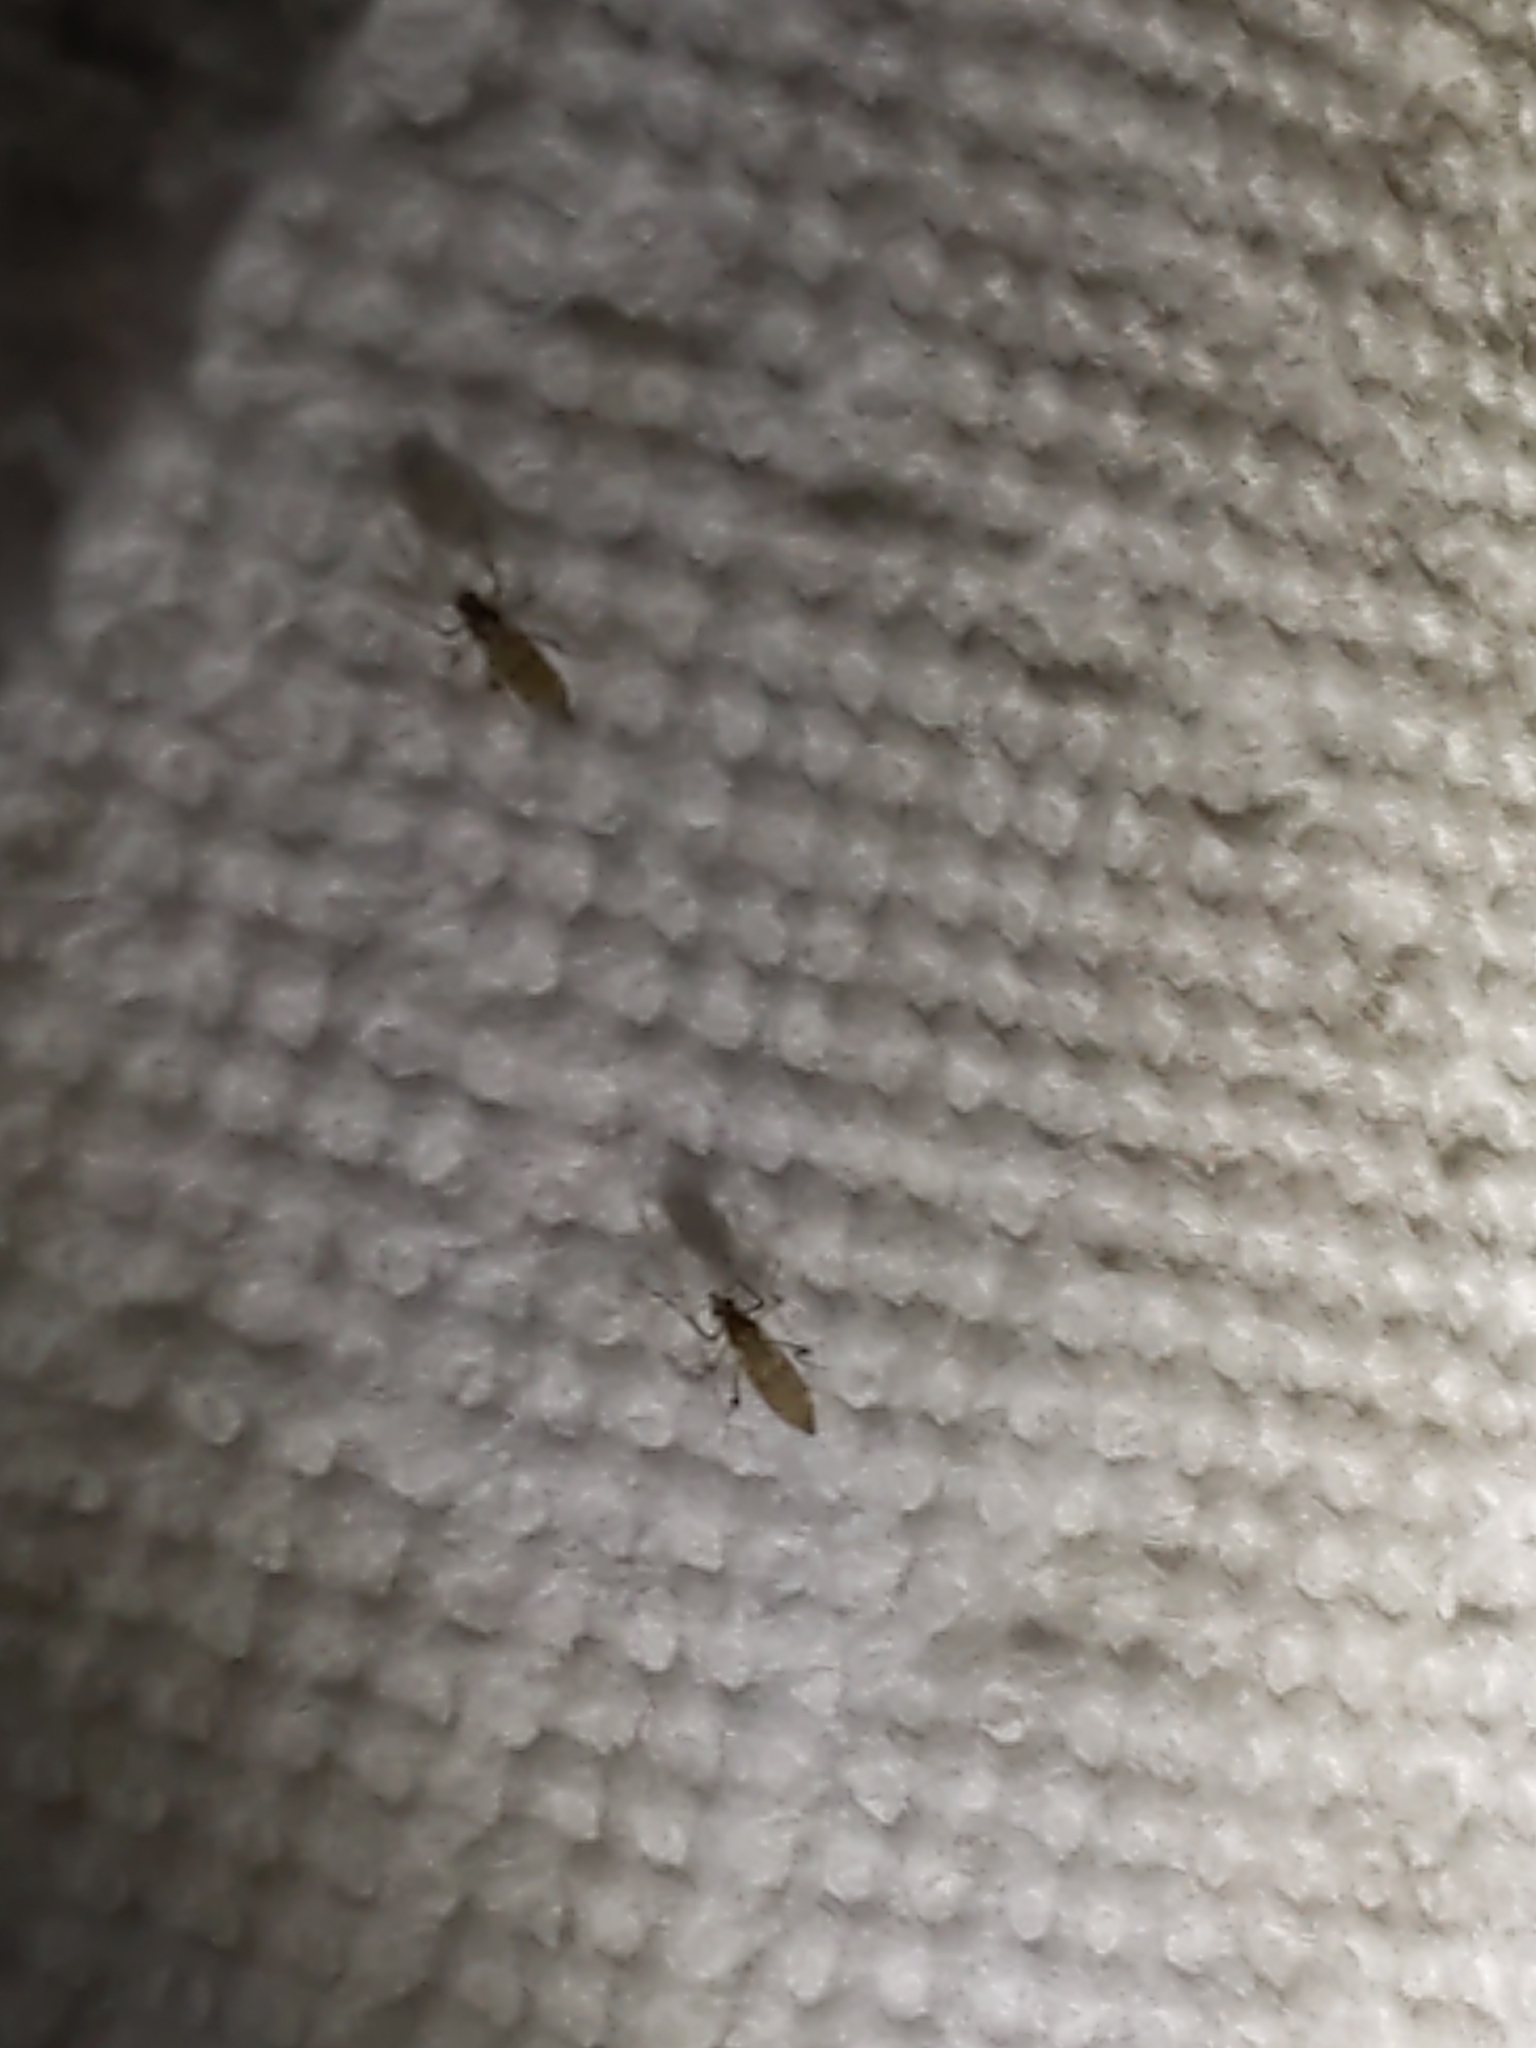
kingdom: Animalia
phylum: Arthropoda
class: Insecta
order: Diptera
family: Chaoboridae
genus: Chaoborus
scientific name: Chaoborus punctipennis
